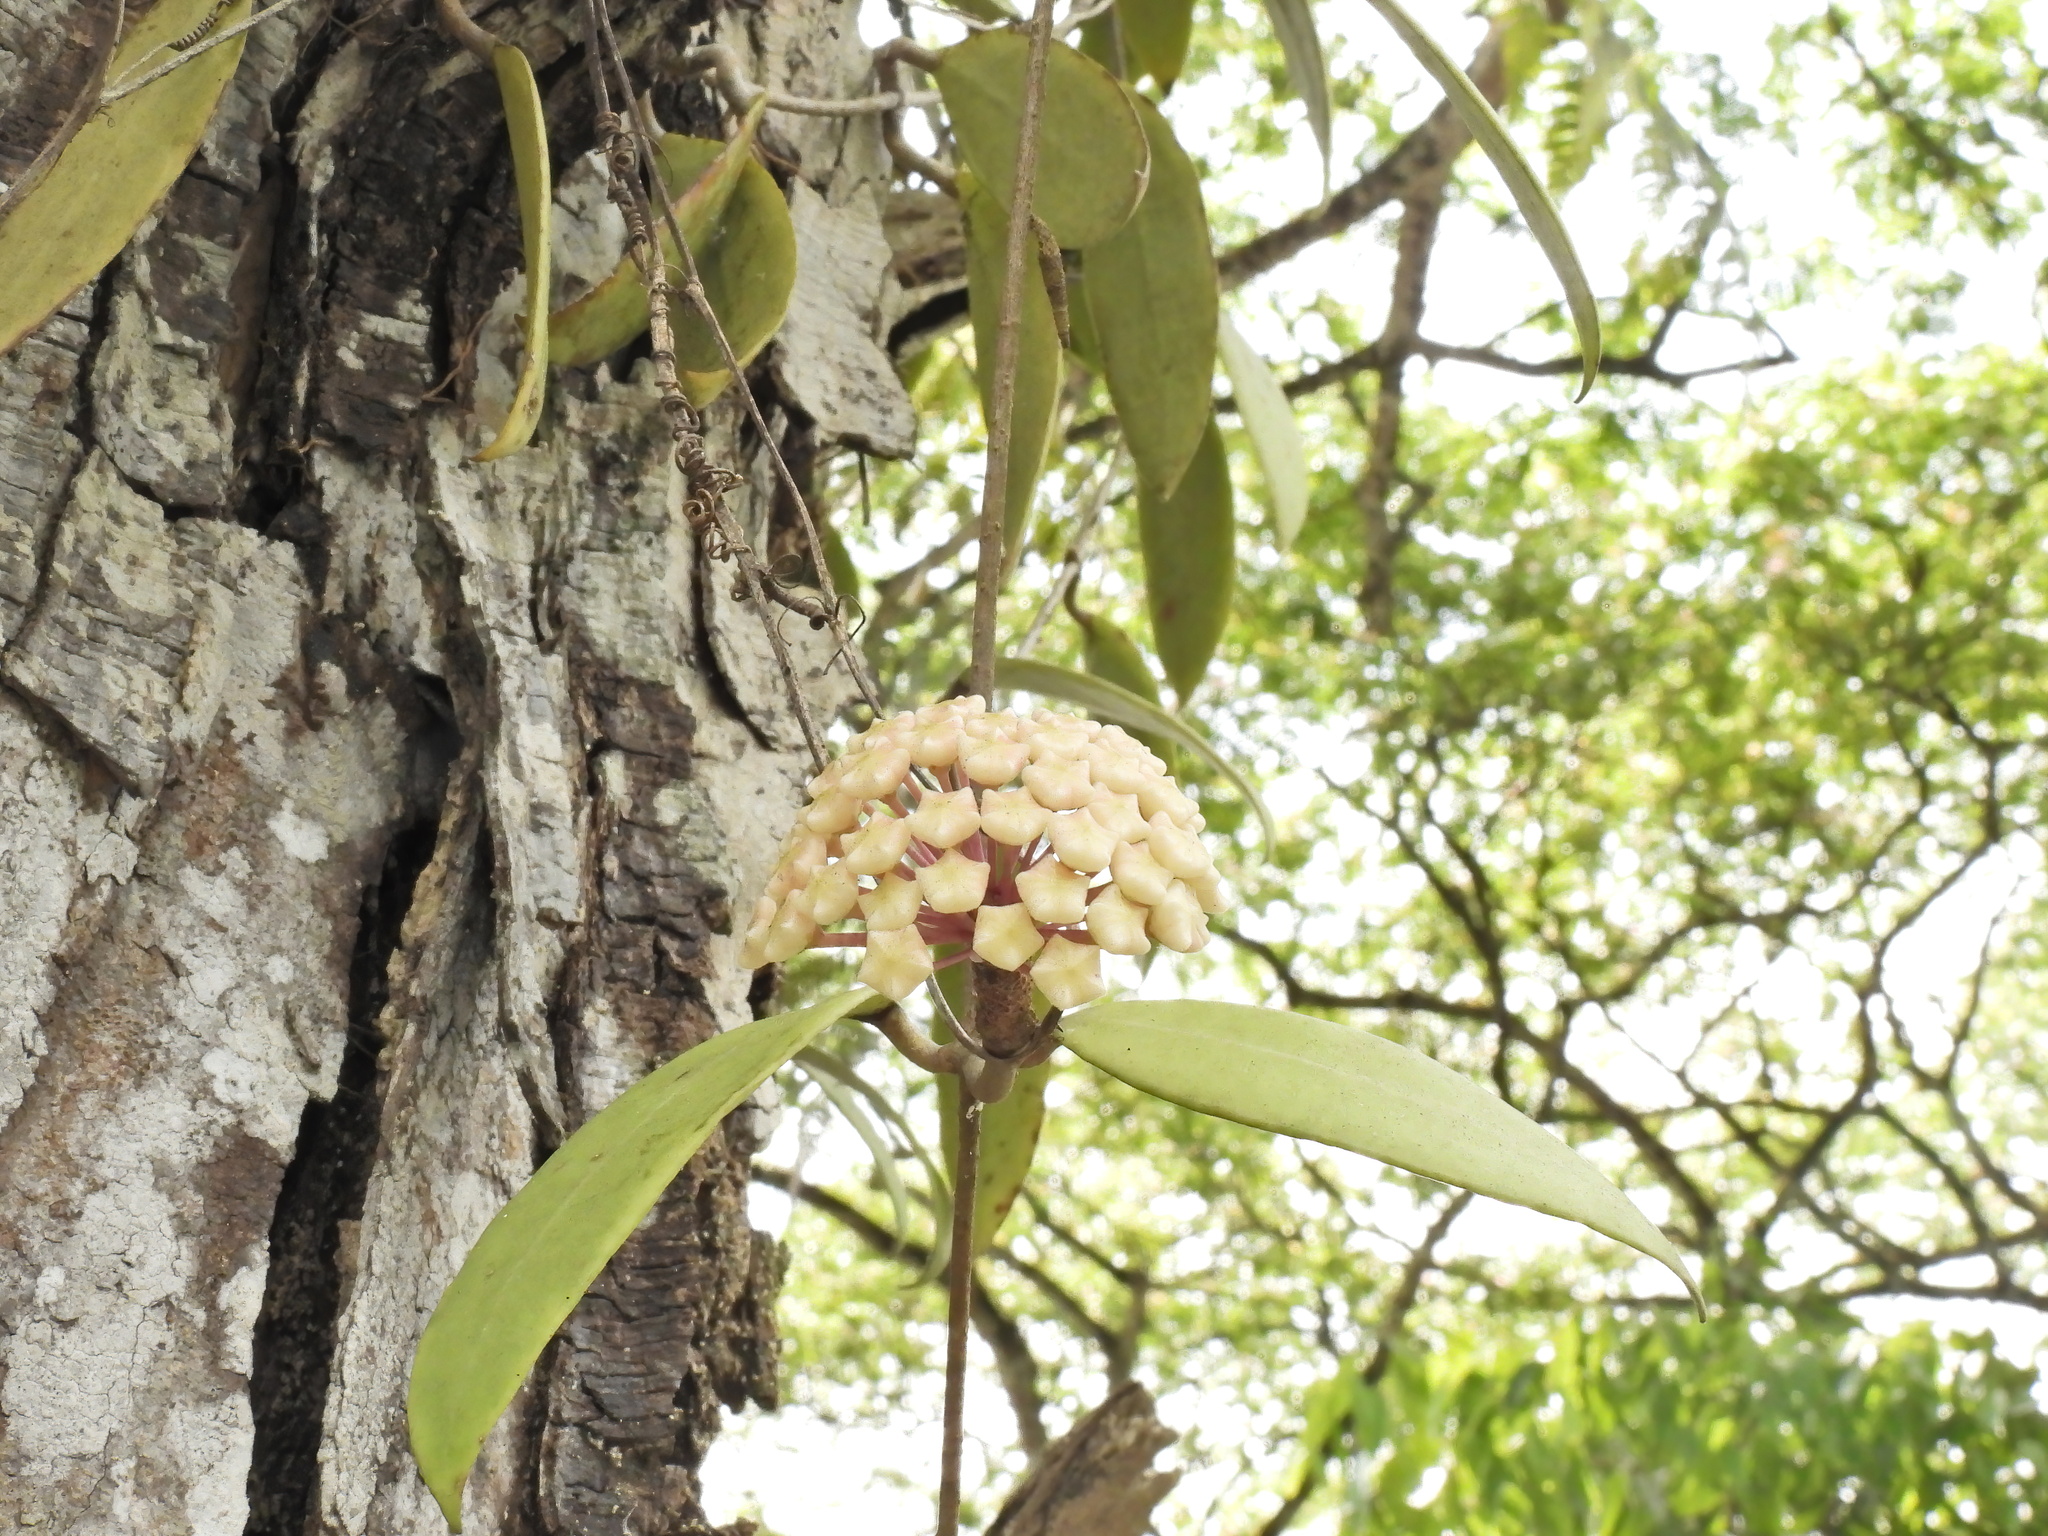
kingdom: Plantae
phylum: Tracheophyta
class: Magnoliopsida
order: Gentianales
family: Apocynaceae
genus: Hoya
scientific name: Hoya verticillata
